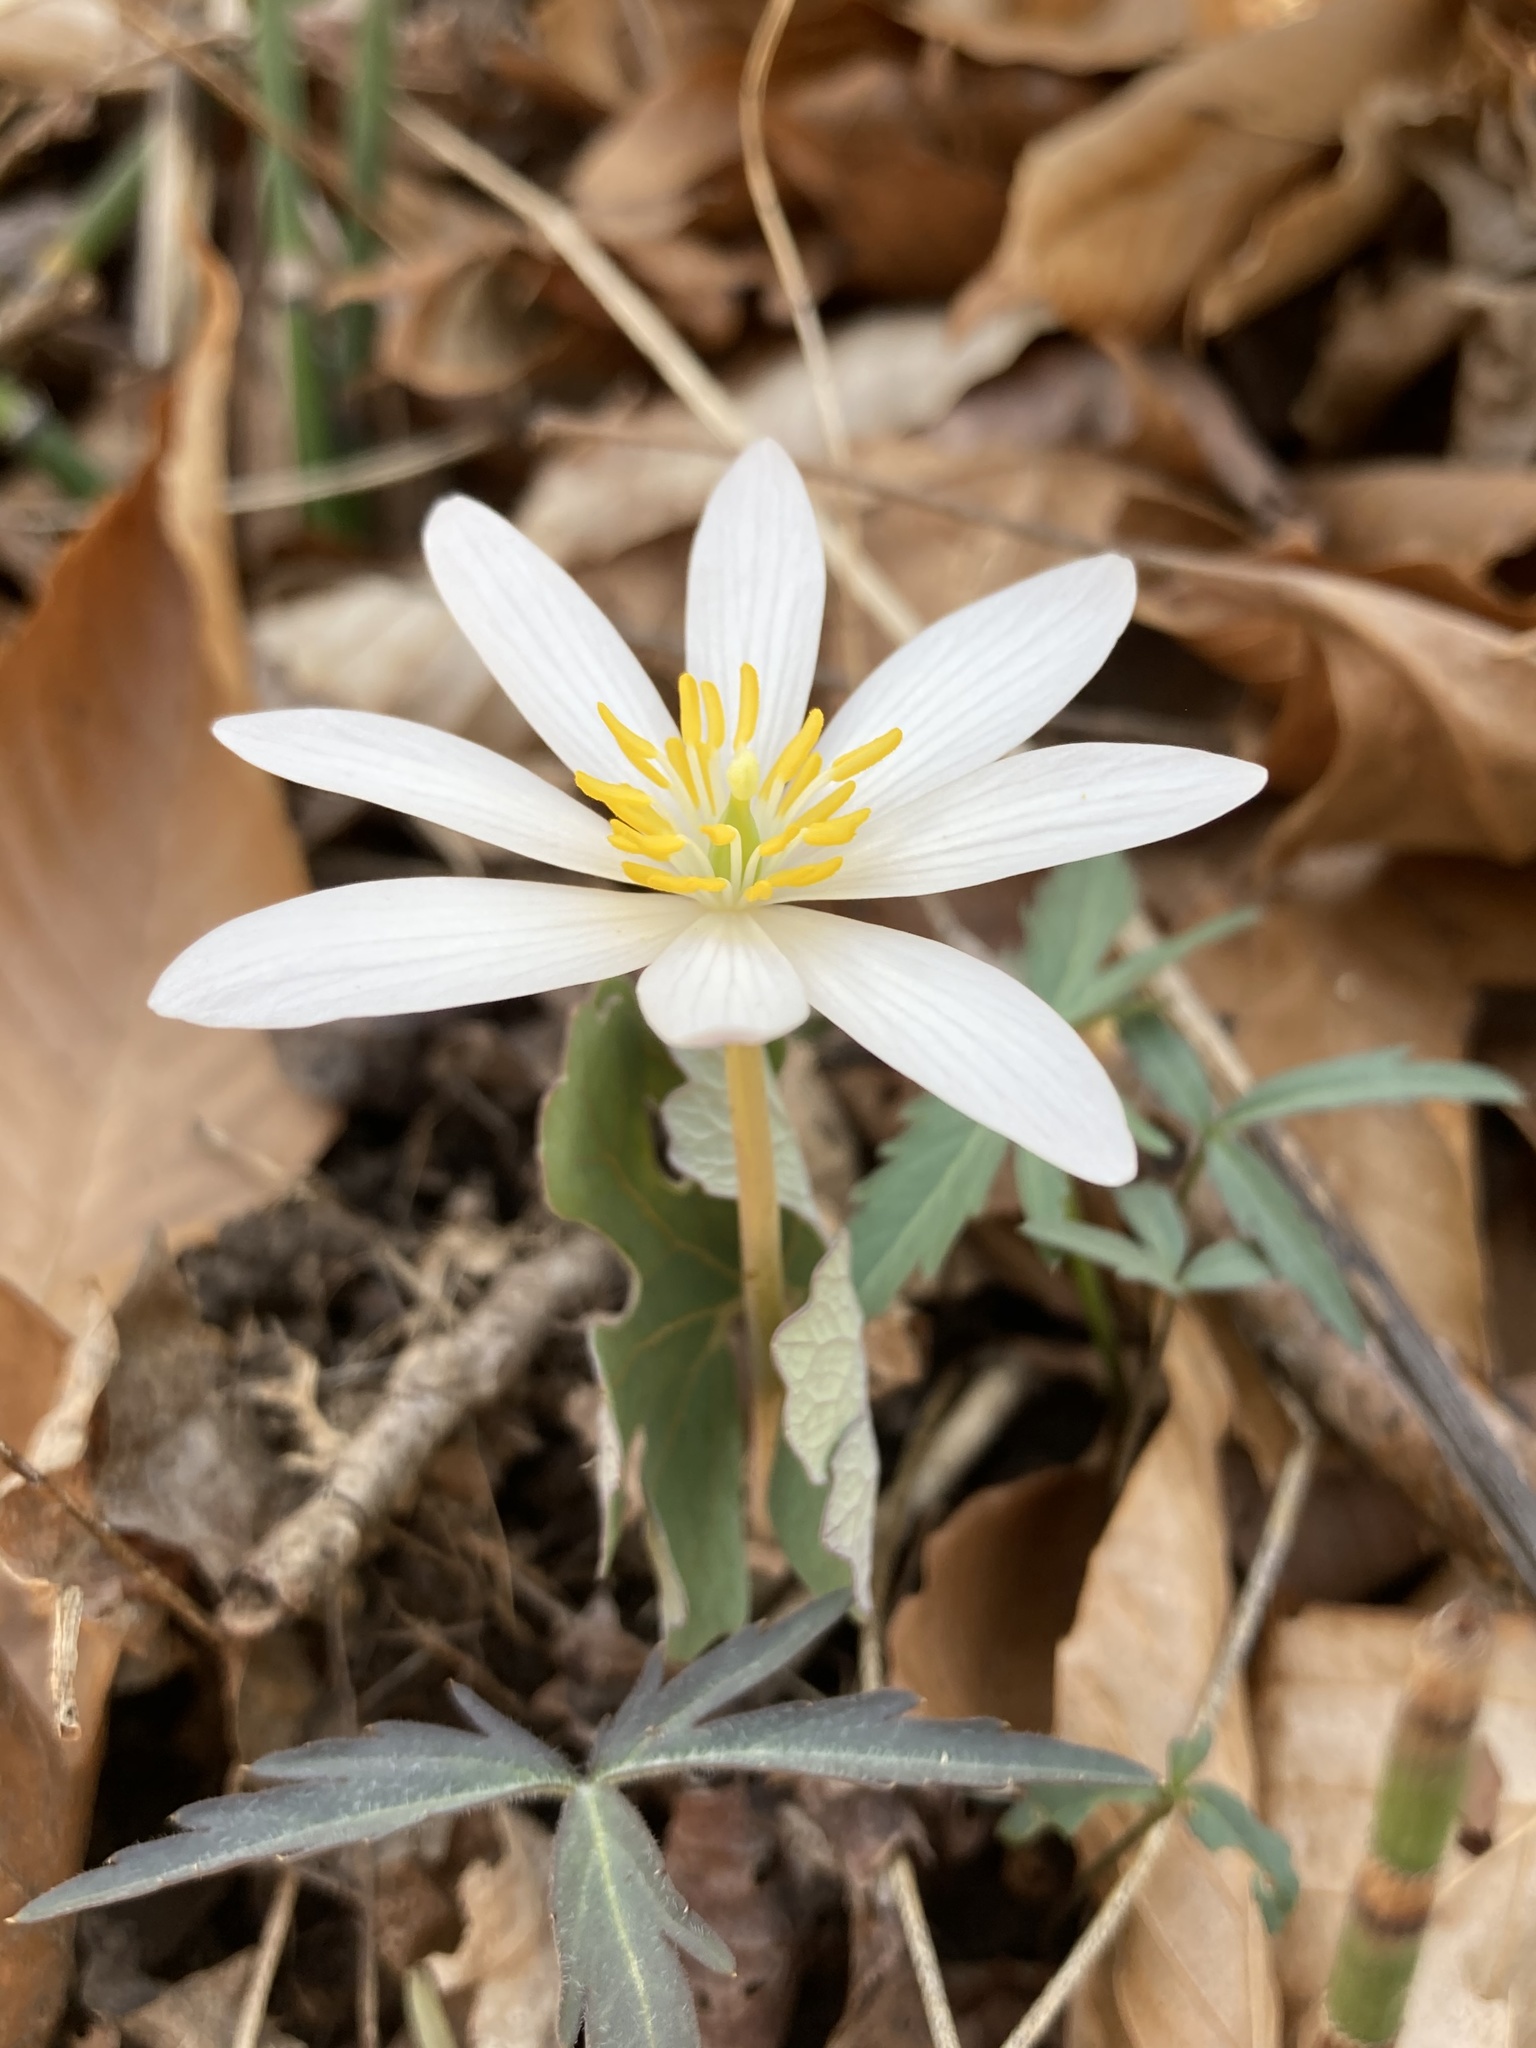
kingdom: Plantae
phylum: Tracheophyta
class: Magnoliopsida
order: Ranunculales
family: Papaveraceae
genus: Sanguinaria
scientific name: Sanguinaria canadensis
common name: Bloodroot
